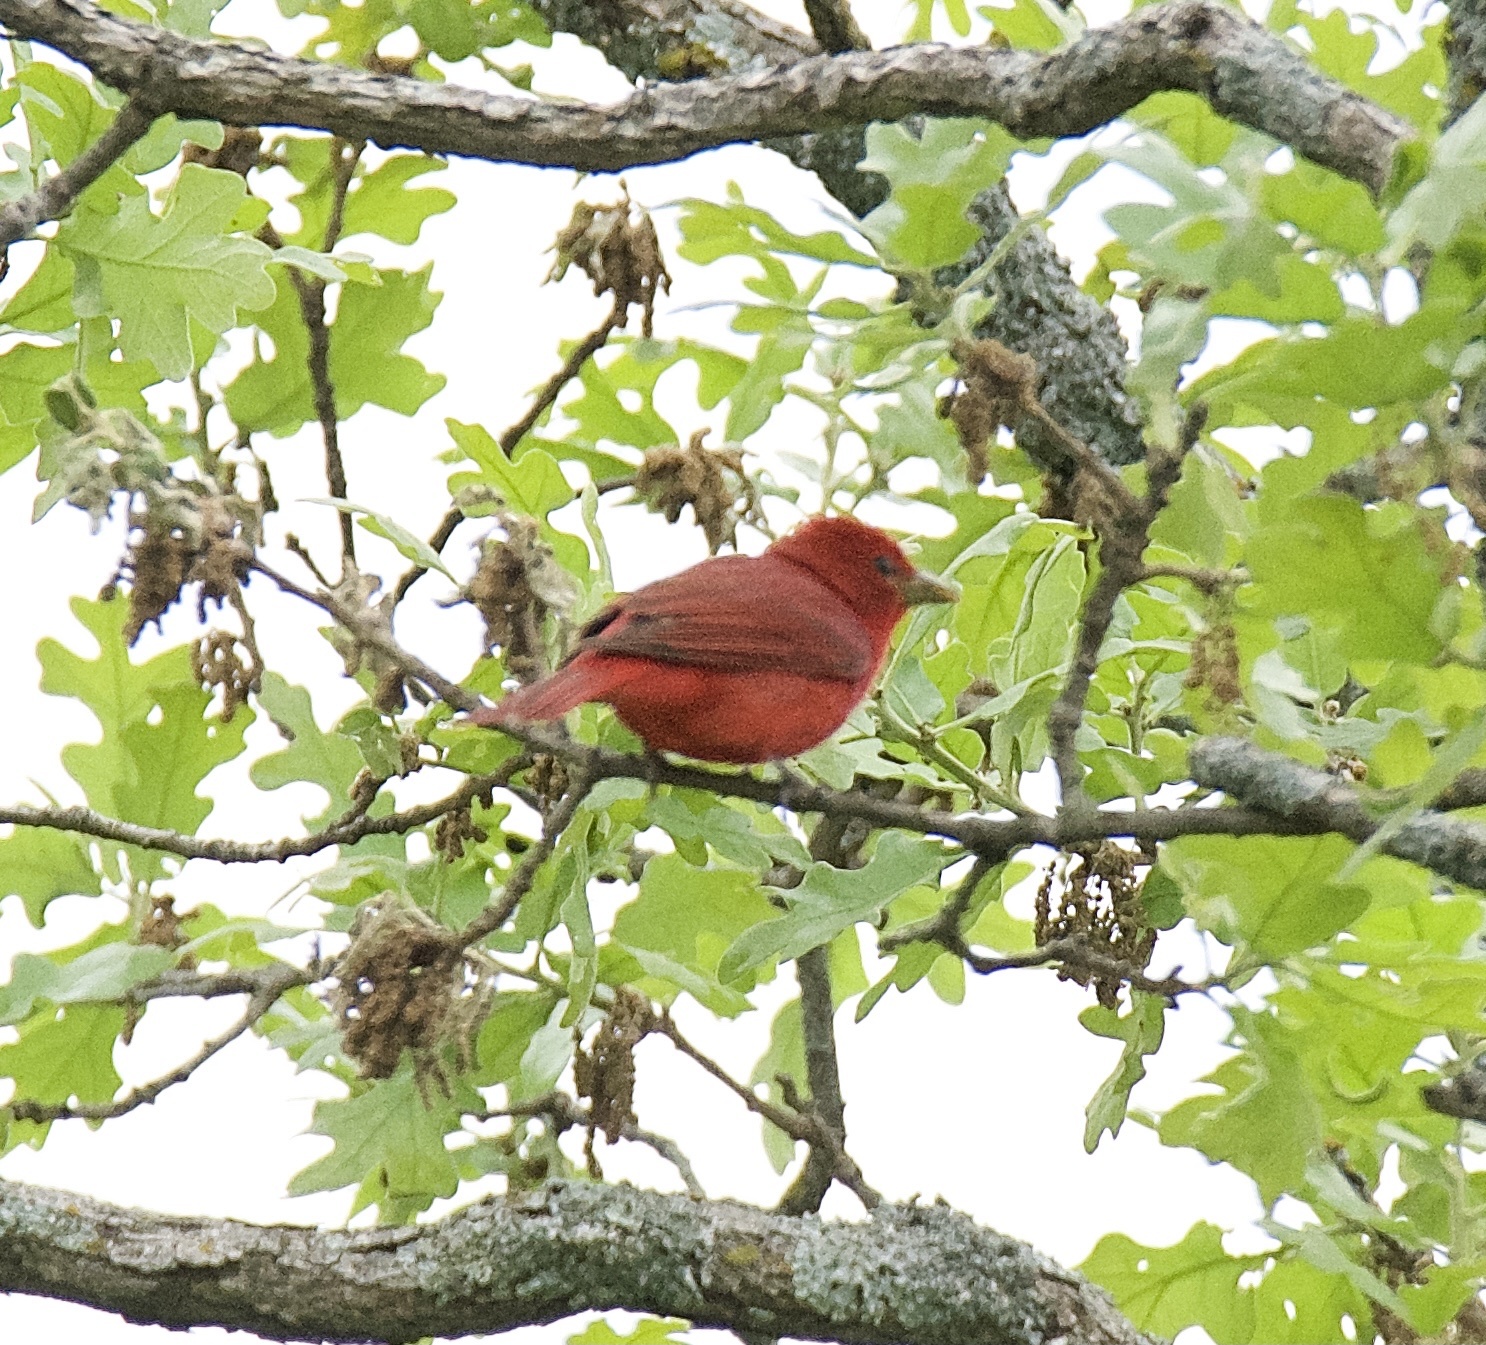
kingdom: Animalia
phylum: Chordata
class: Aves
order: Passeriformes
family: Cardinalidae
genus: Piranga
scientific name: Piranga rubra
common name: Summer tanager
